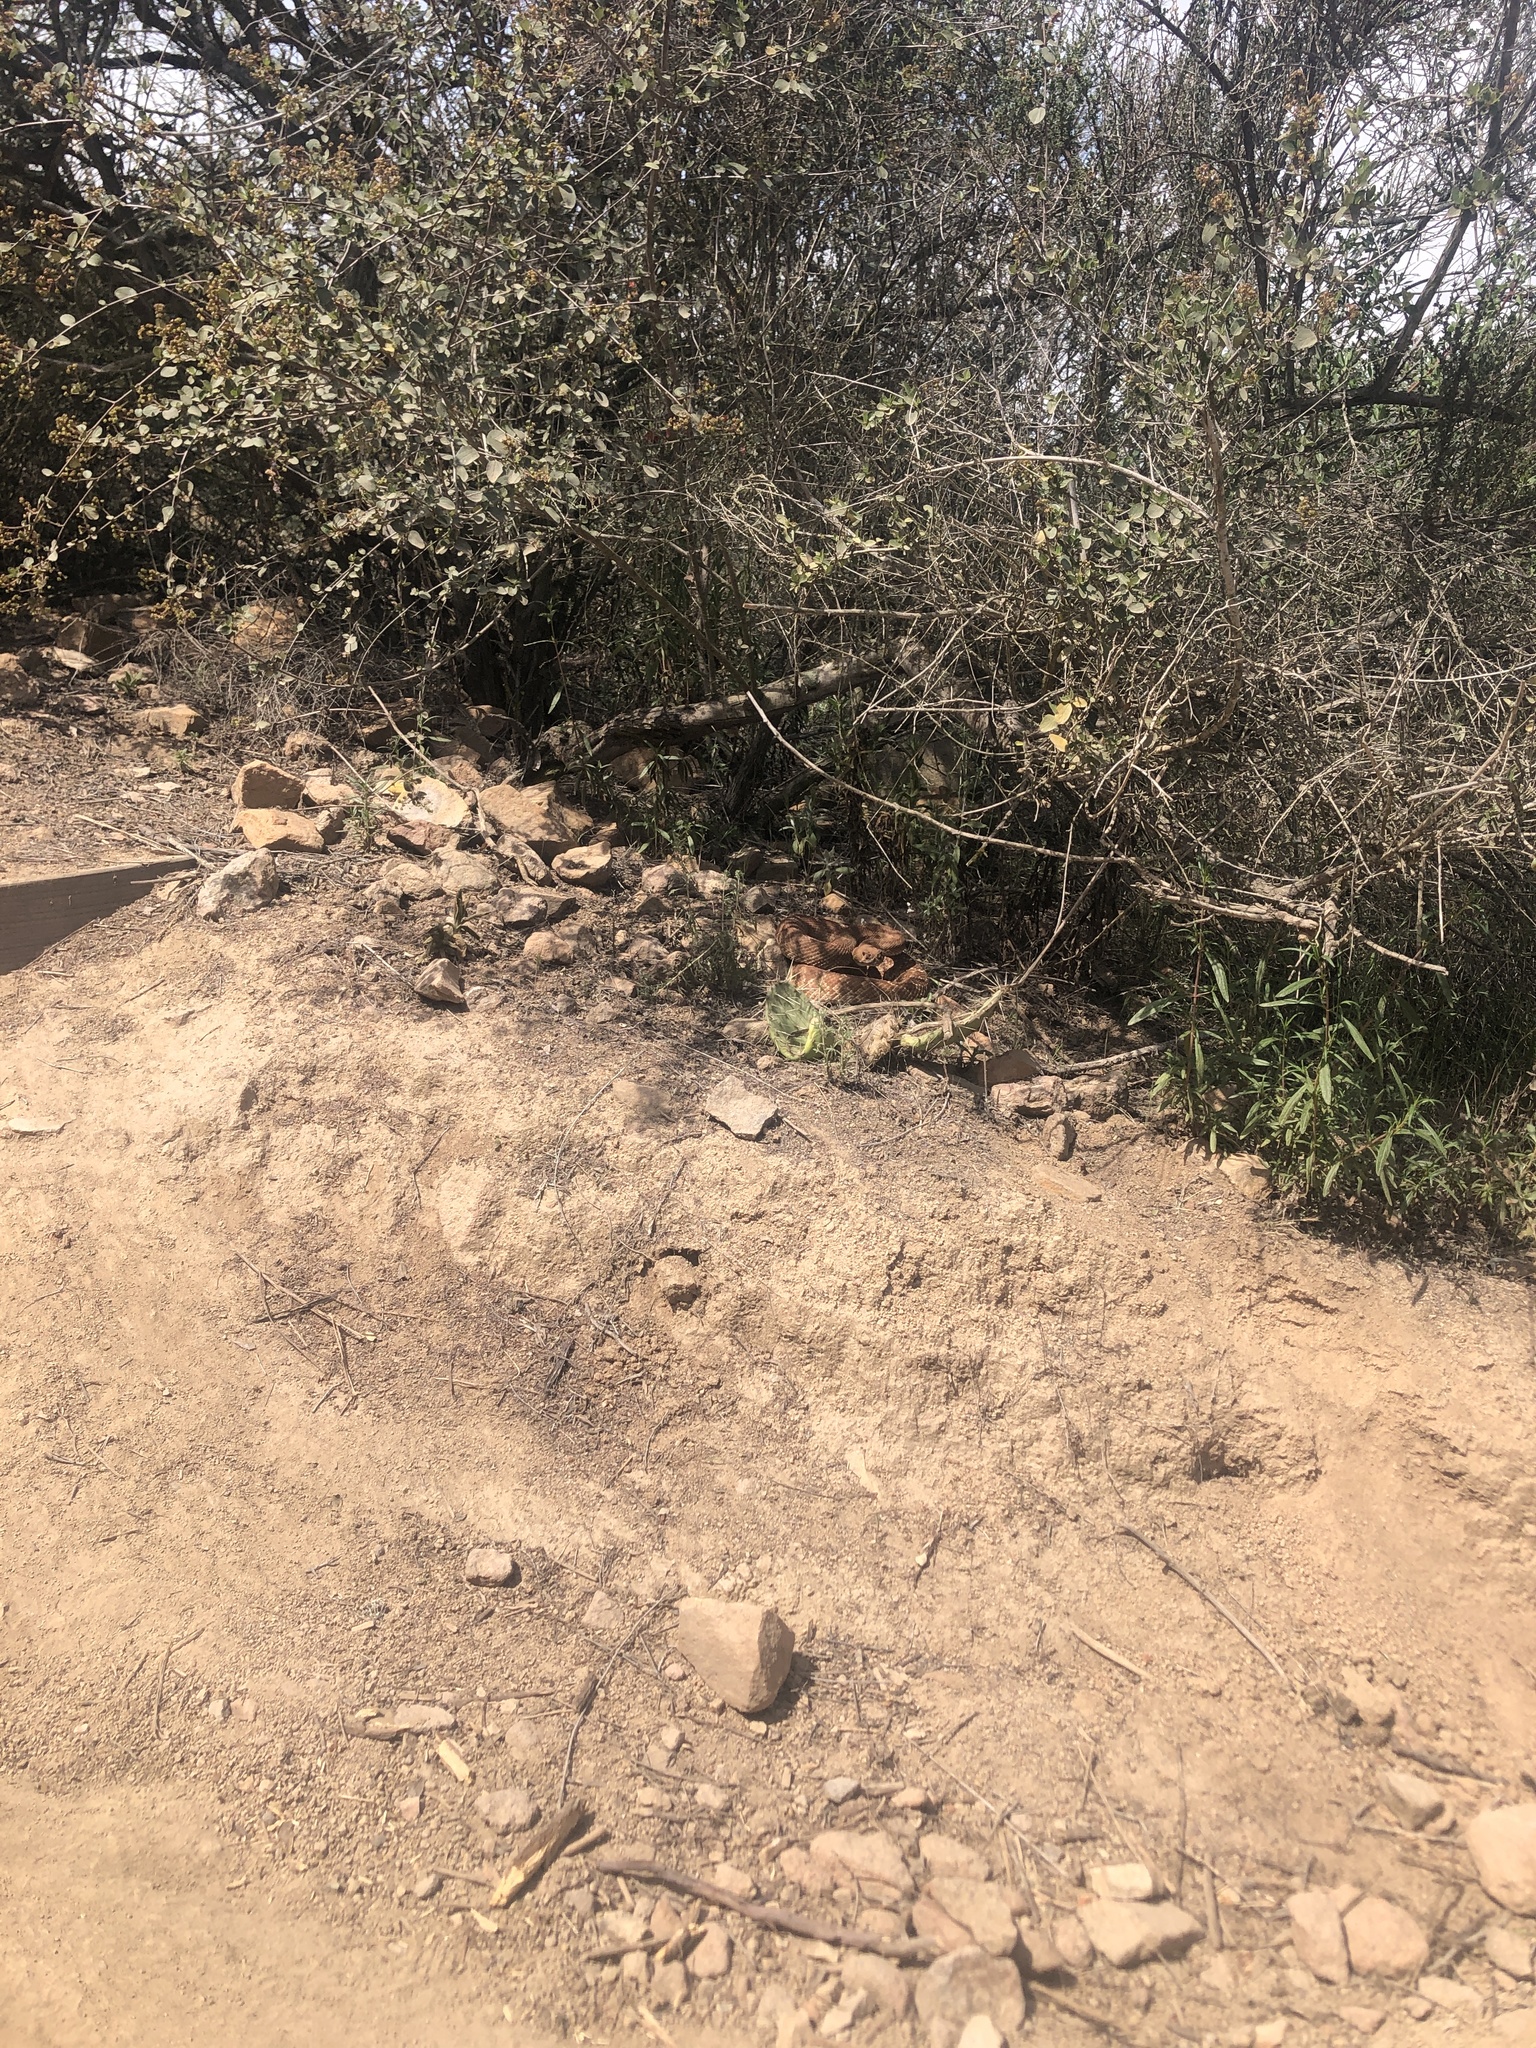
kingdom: Animalia
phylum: Chordata
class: Squamata
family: Viperidae
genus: Crotalus
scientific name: Crotalus ruber
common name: Red diamond rattlesnake
